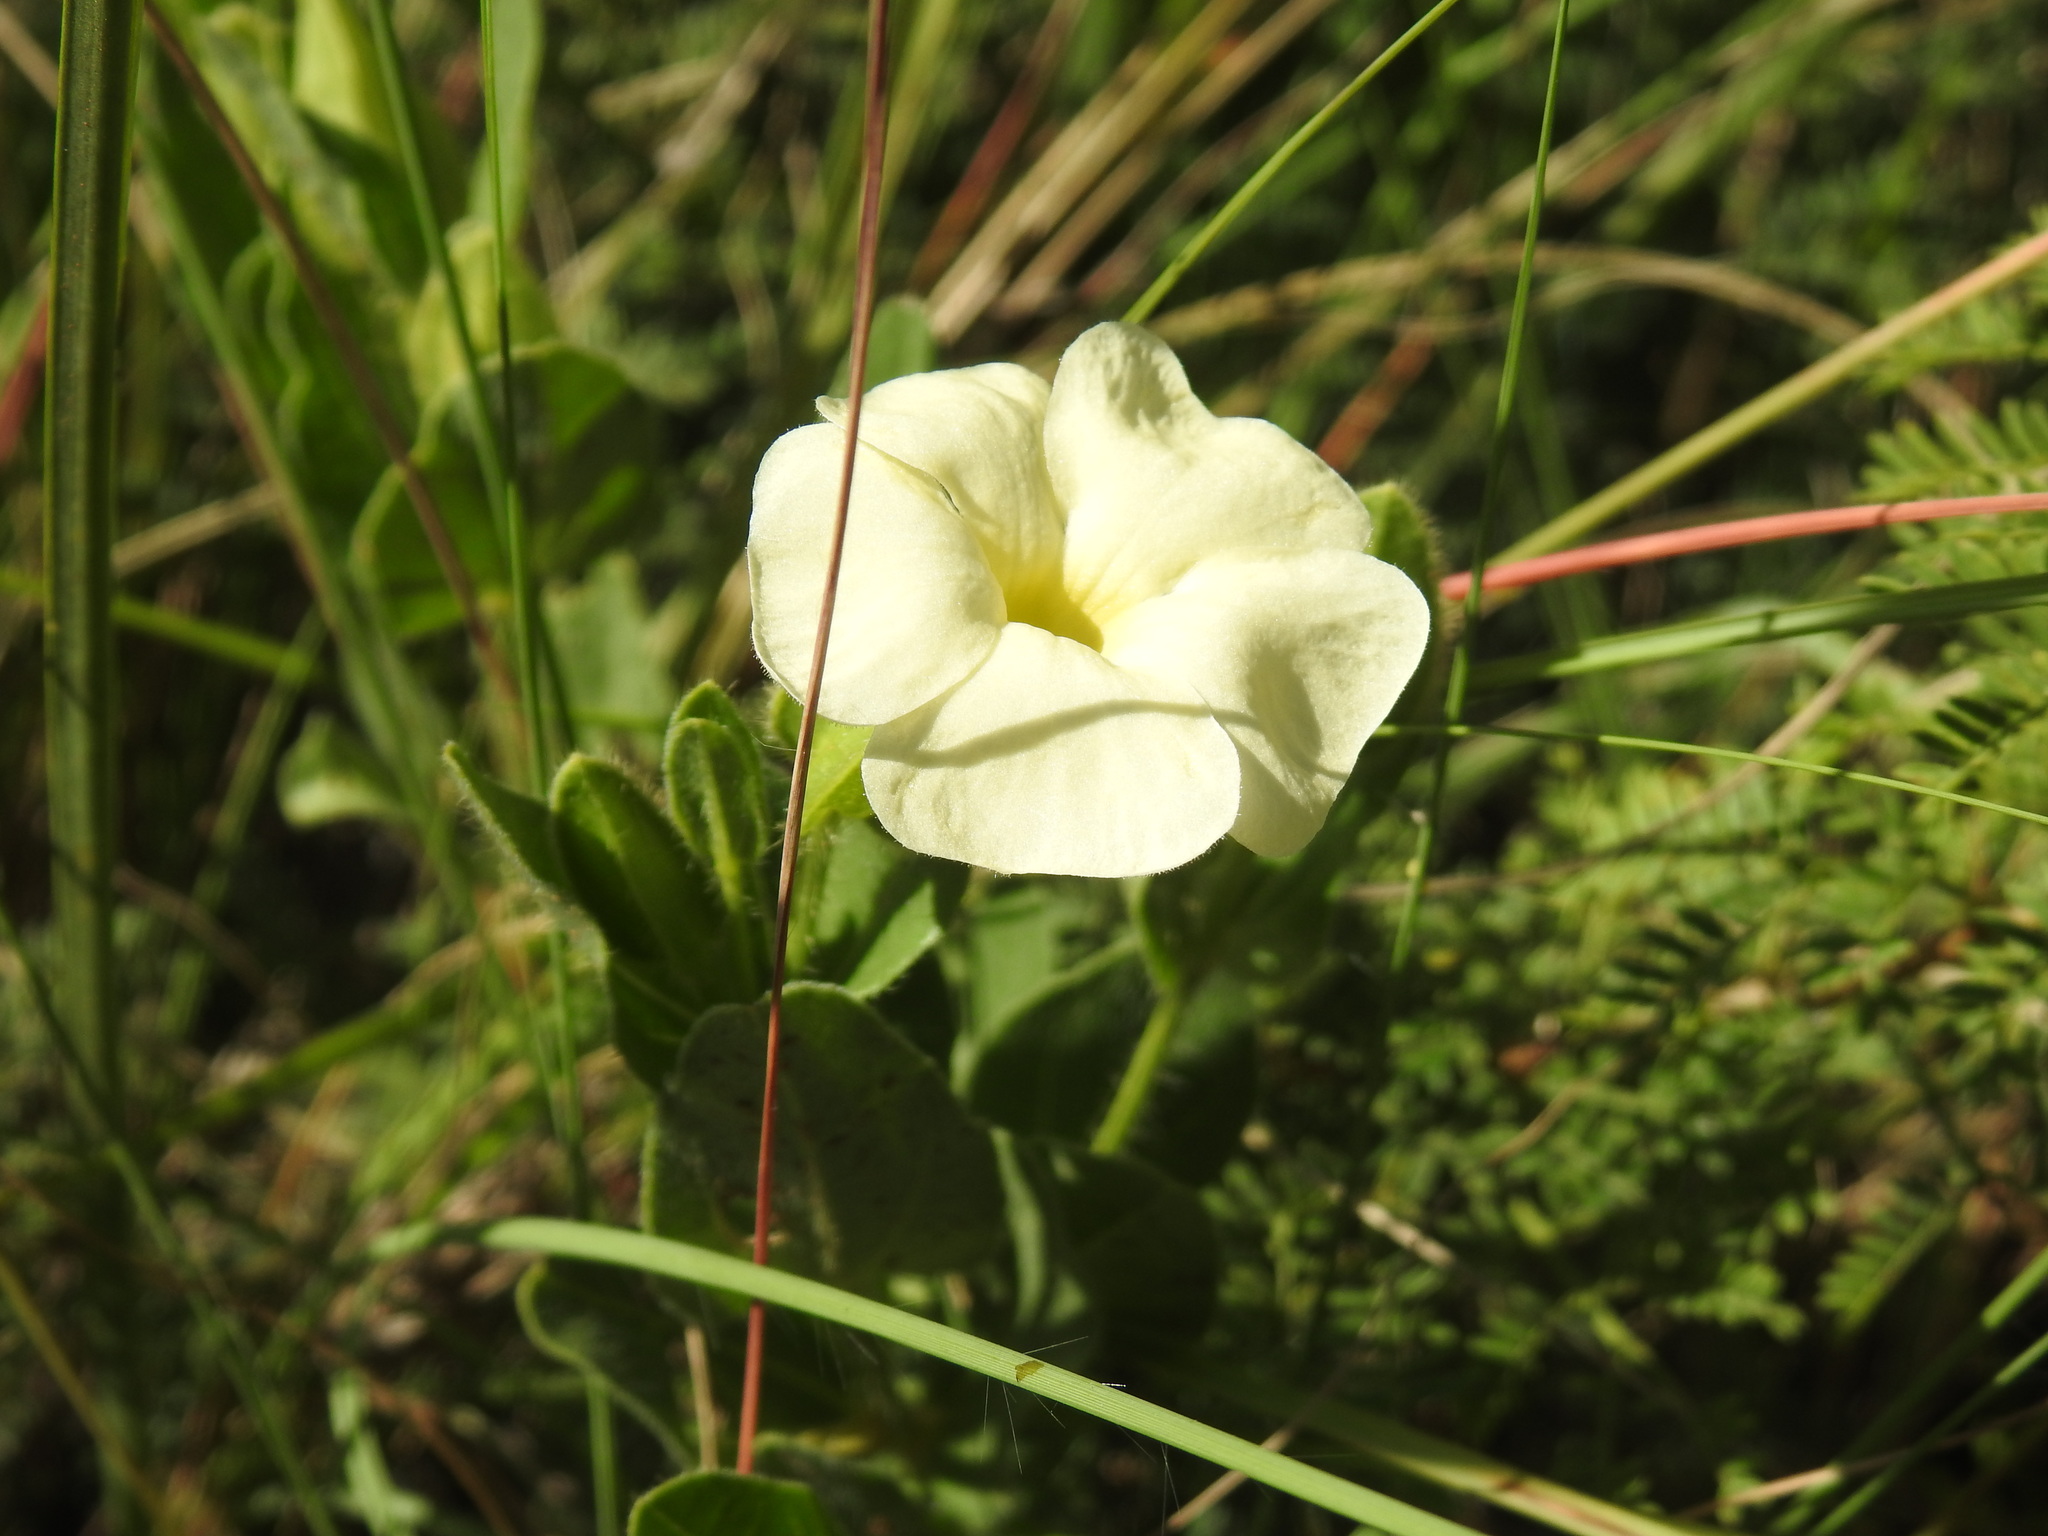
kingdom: Plantae
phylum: Tracheophyta
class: Magnoliopsida
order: Lamiales
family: Acanthaceae
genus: Thunbergia
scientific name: Thunbergia atriplicifolia
